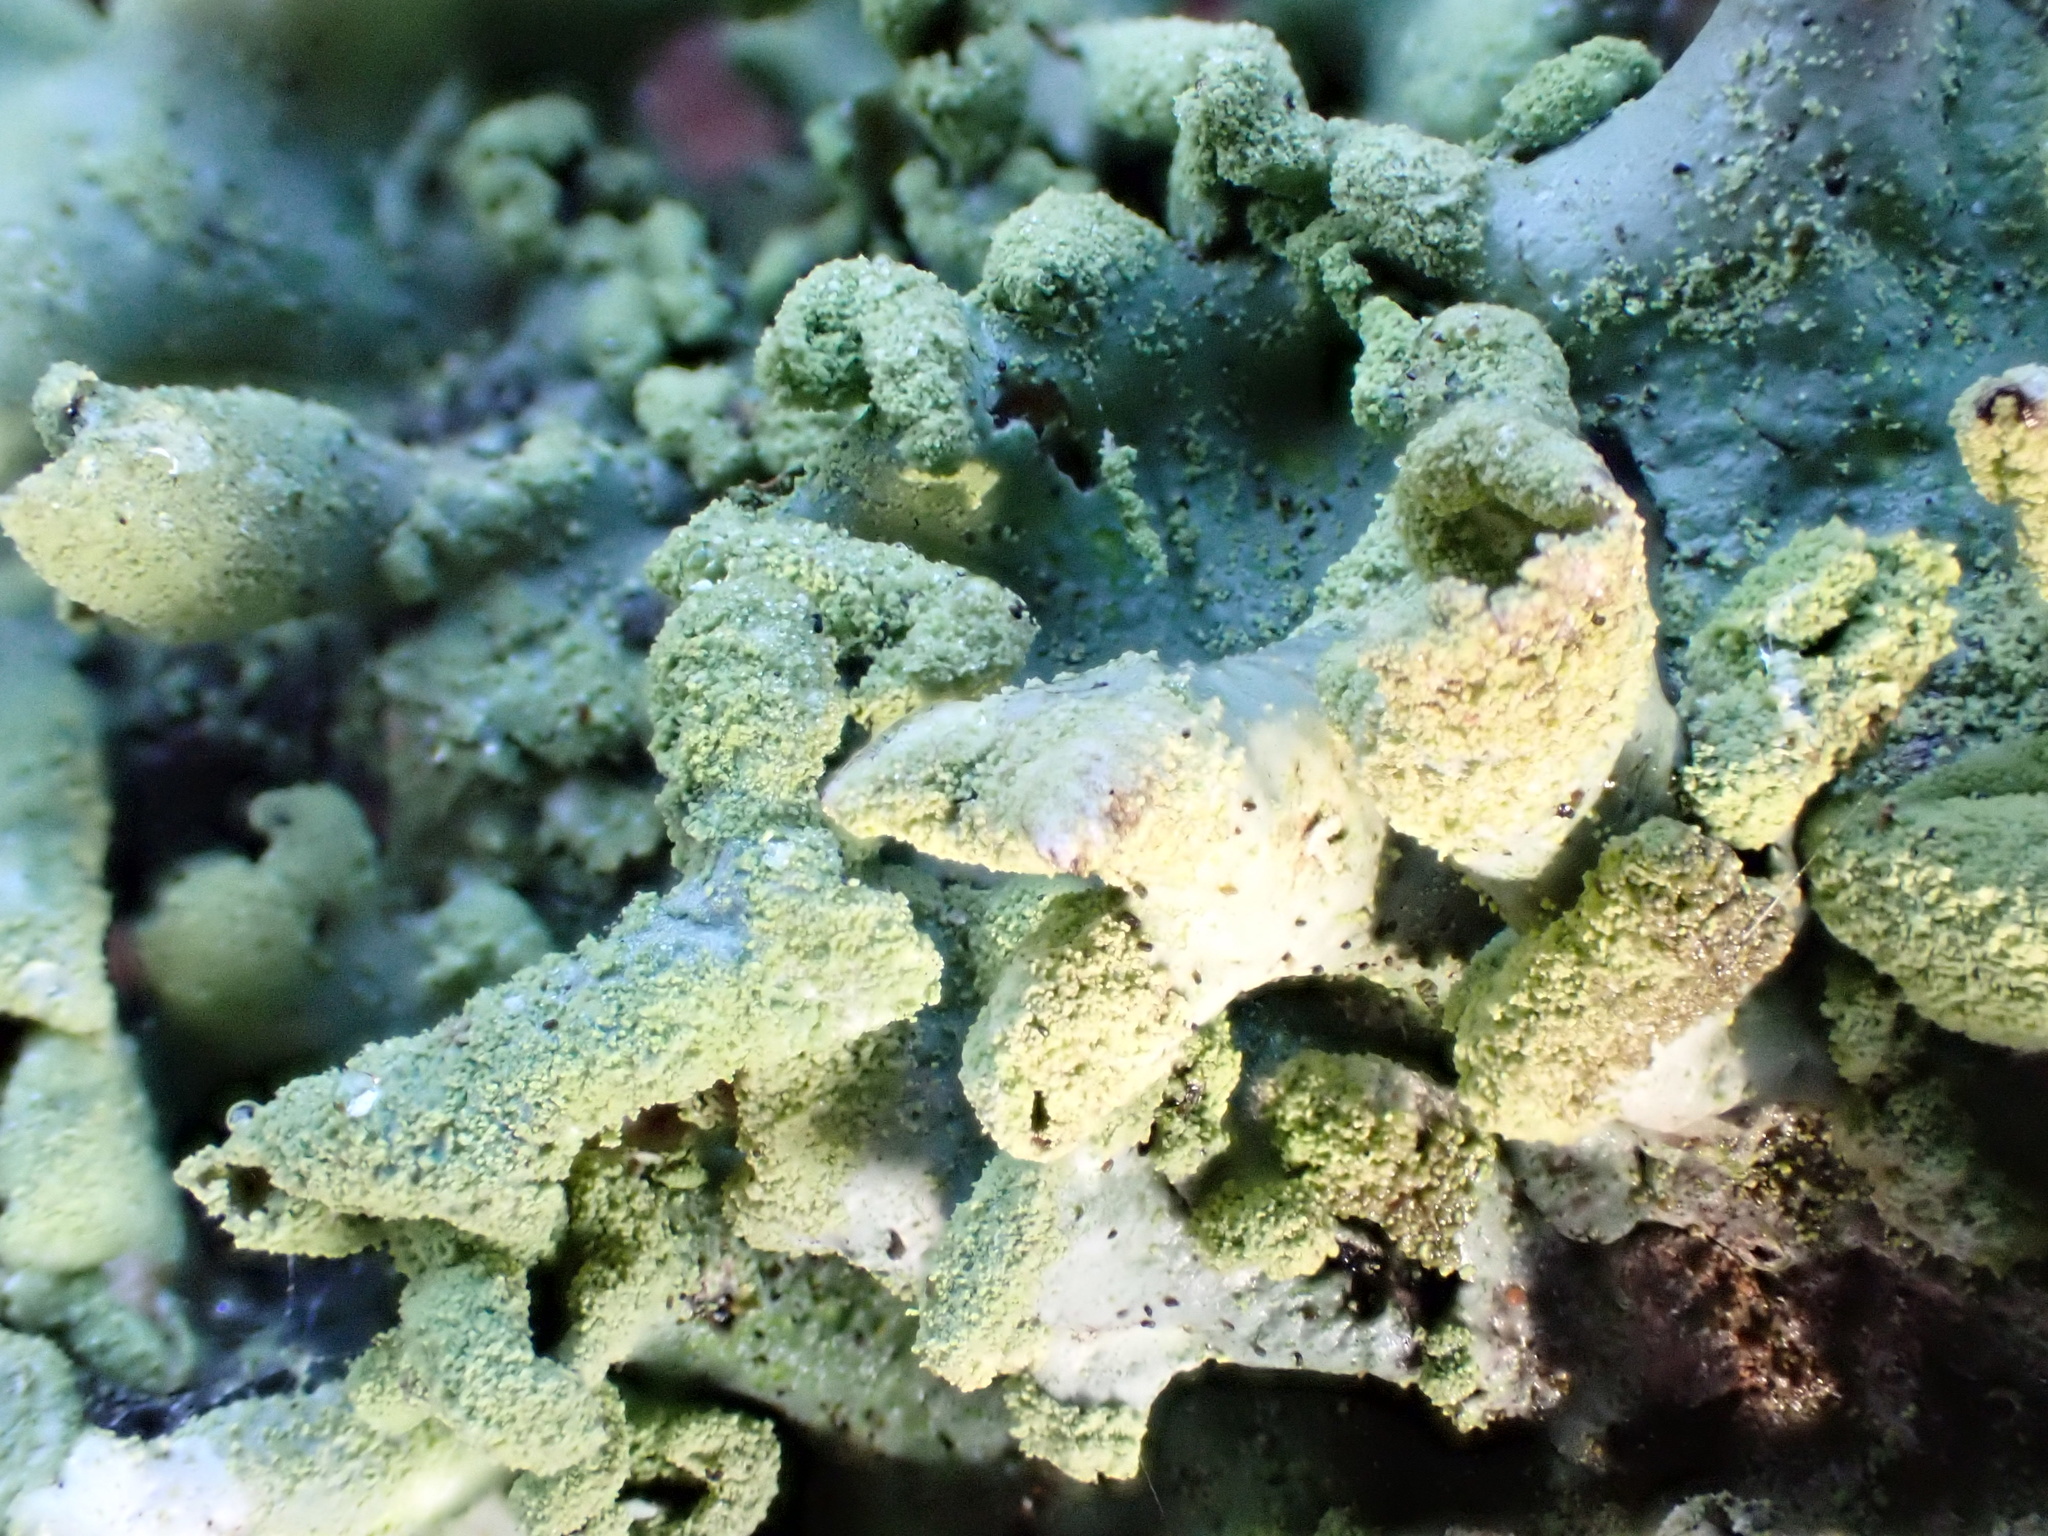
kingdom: Fungi
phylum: Ascomycota
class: Lecanoromycetes
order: Lecanorales
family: Parmeliaceae
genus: Hypotrachyna
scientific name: Hypotrachyna revoluta
